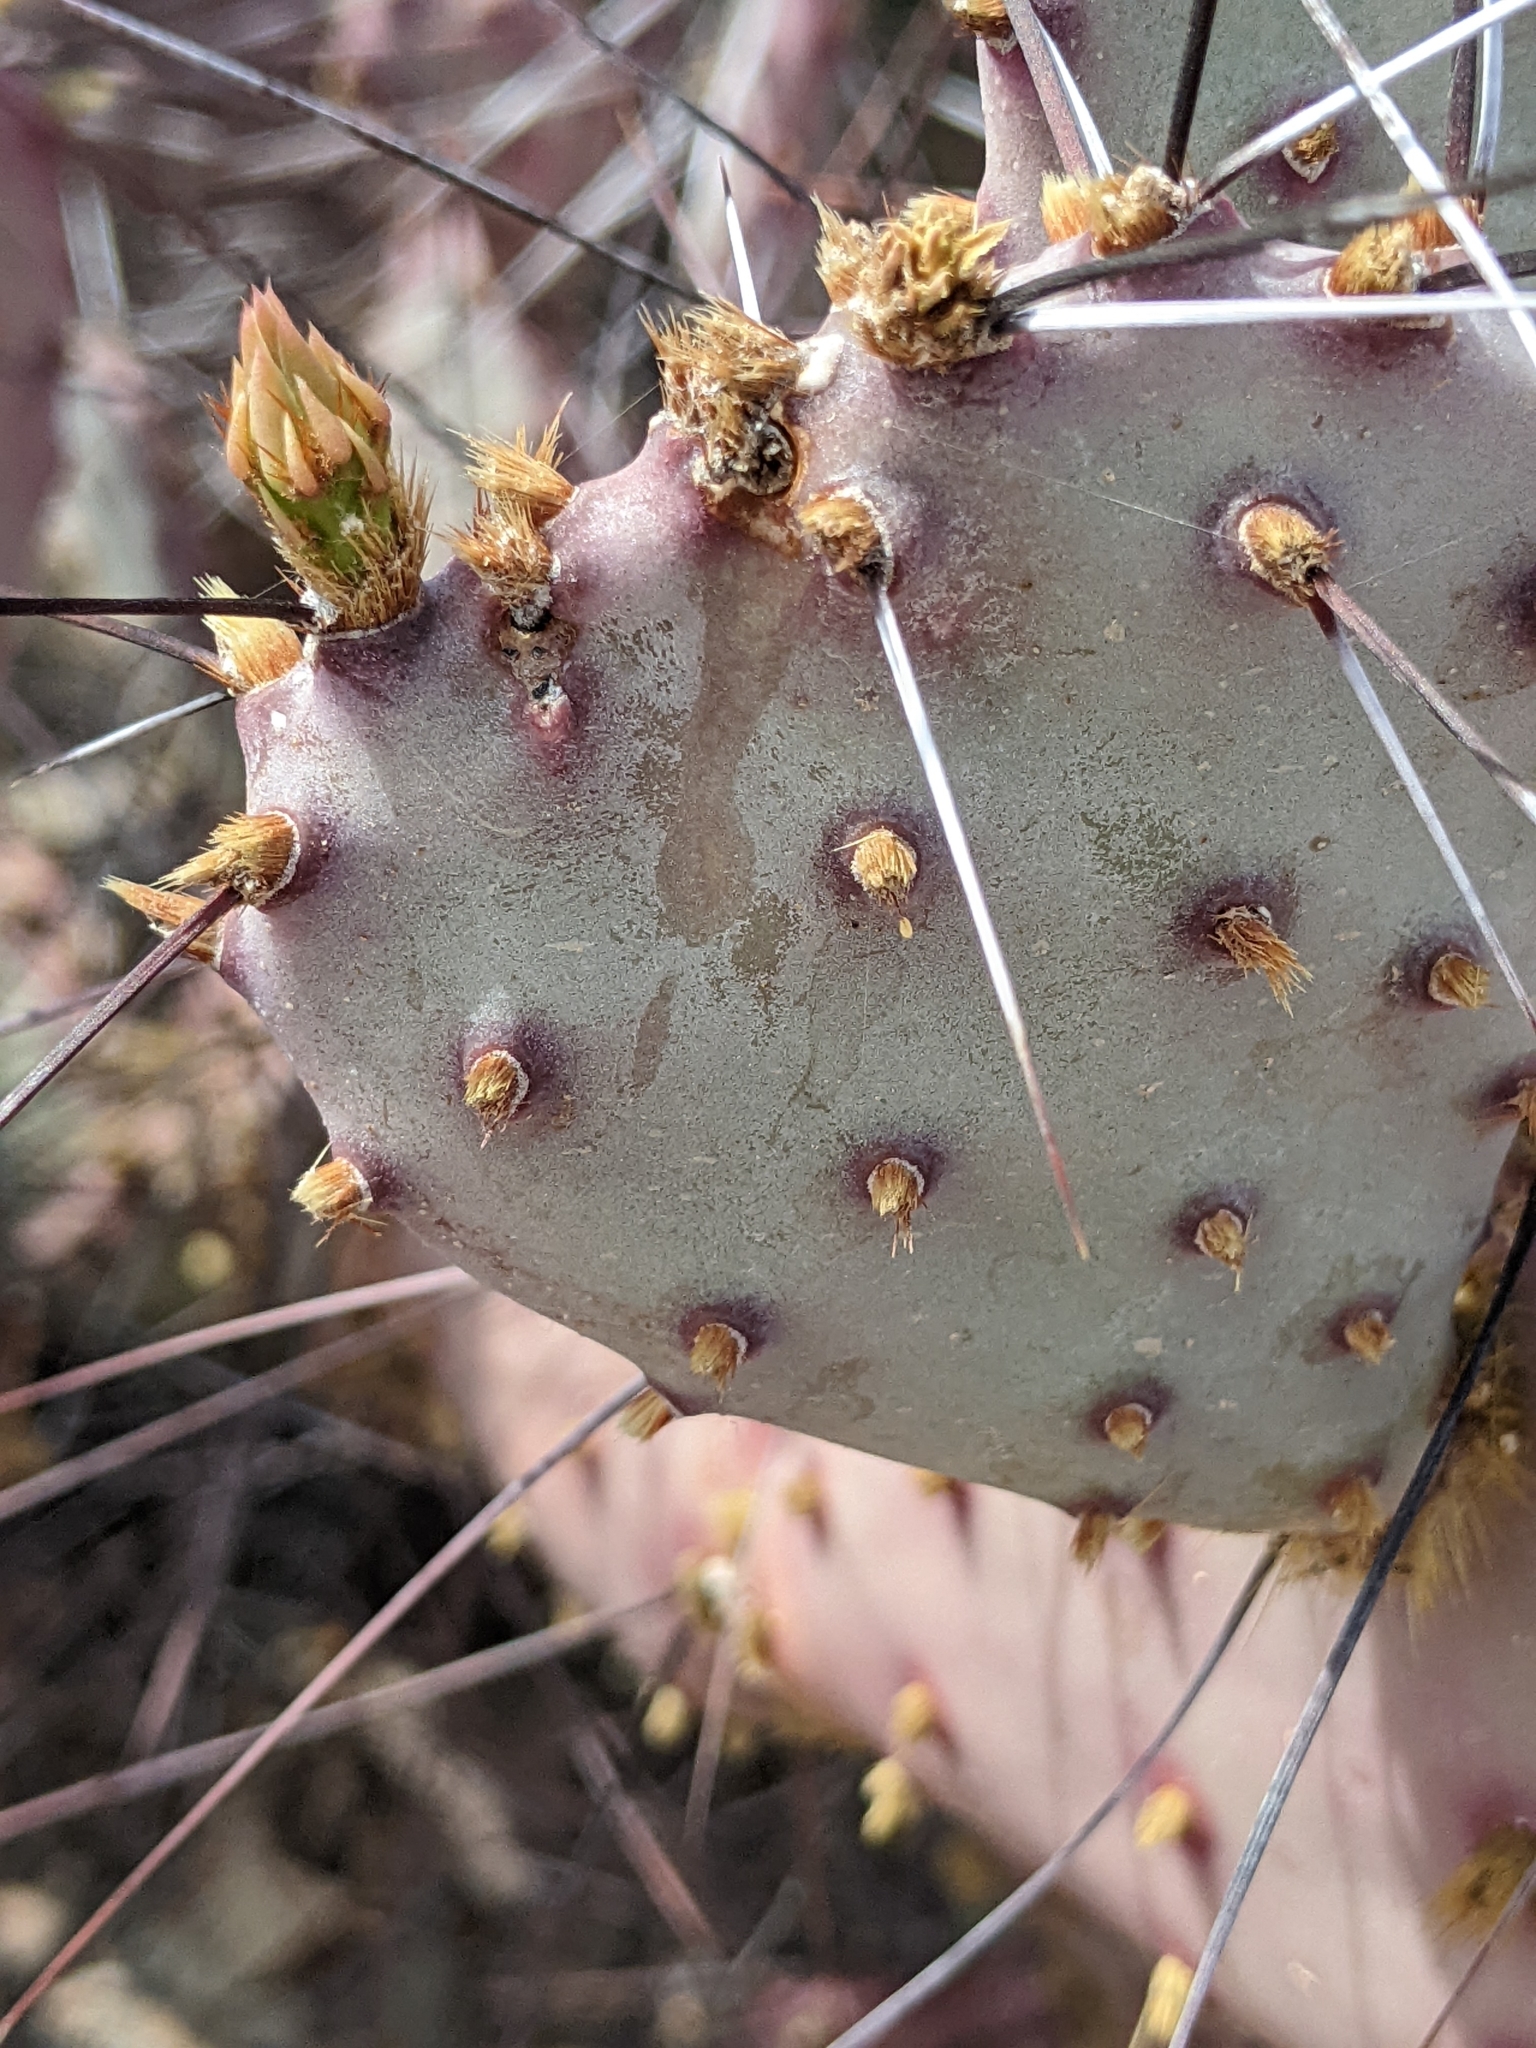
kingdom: Plantae
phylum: Tracheophyta
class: Magnoliopsida
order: Caryophyllales
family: Cactaceae
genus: Opuntia
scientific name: Opuntia phaeacantha
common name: New mexico prickly-pear
